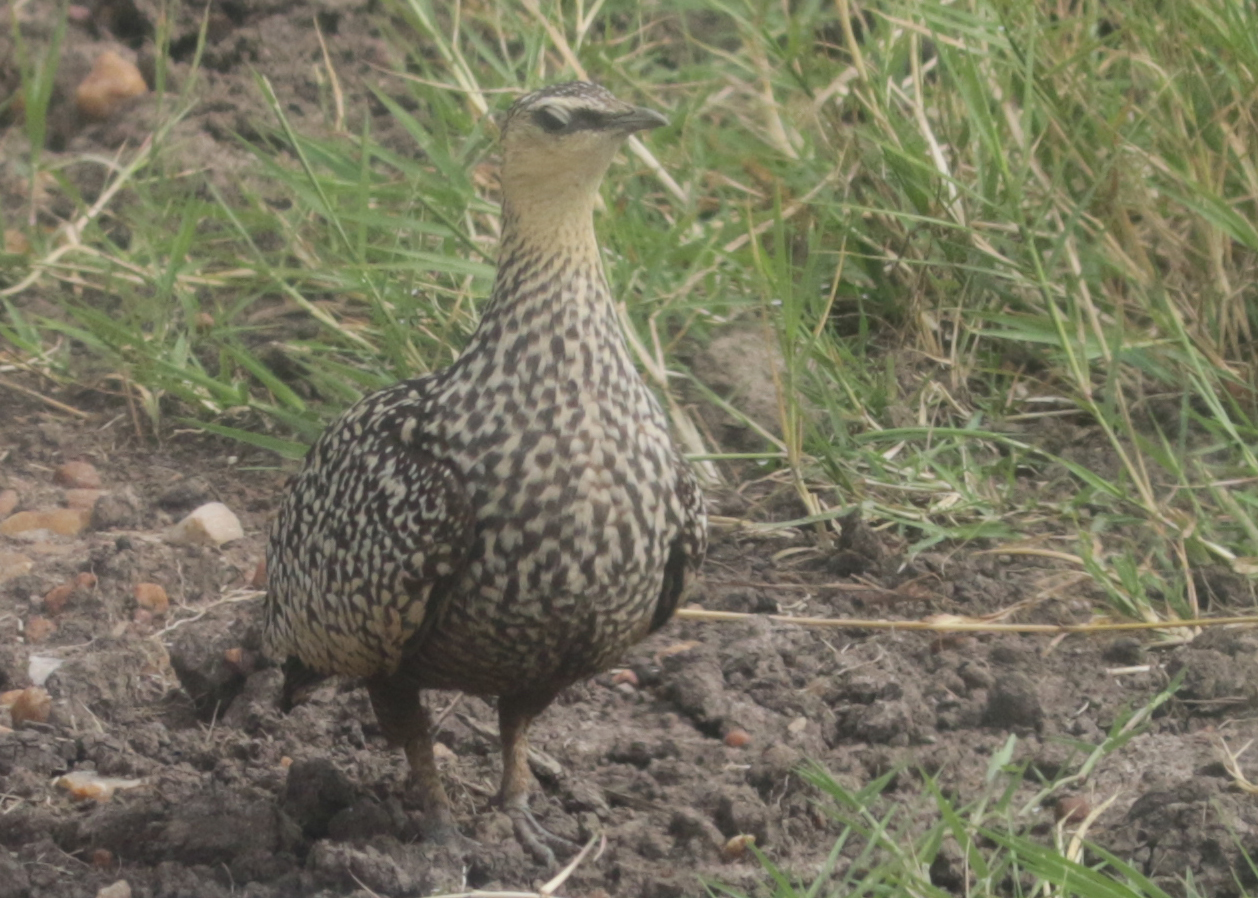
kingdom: Animalia
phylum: Chordata
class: Aves
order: Pteroclidiformes
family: Pteroclididae
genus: Pterocles
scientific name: Pterocles gutturalis
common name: Yellow-throated sandgrouse
